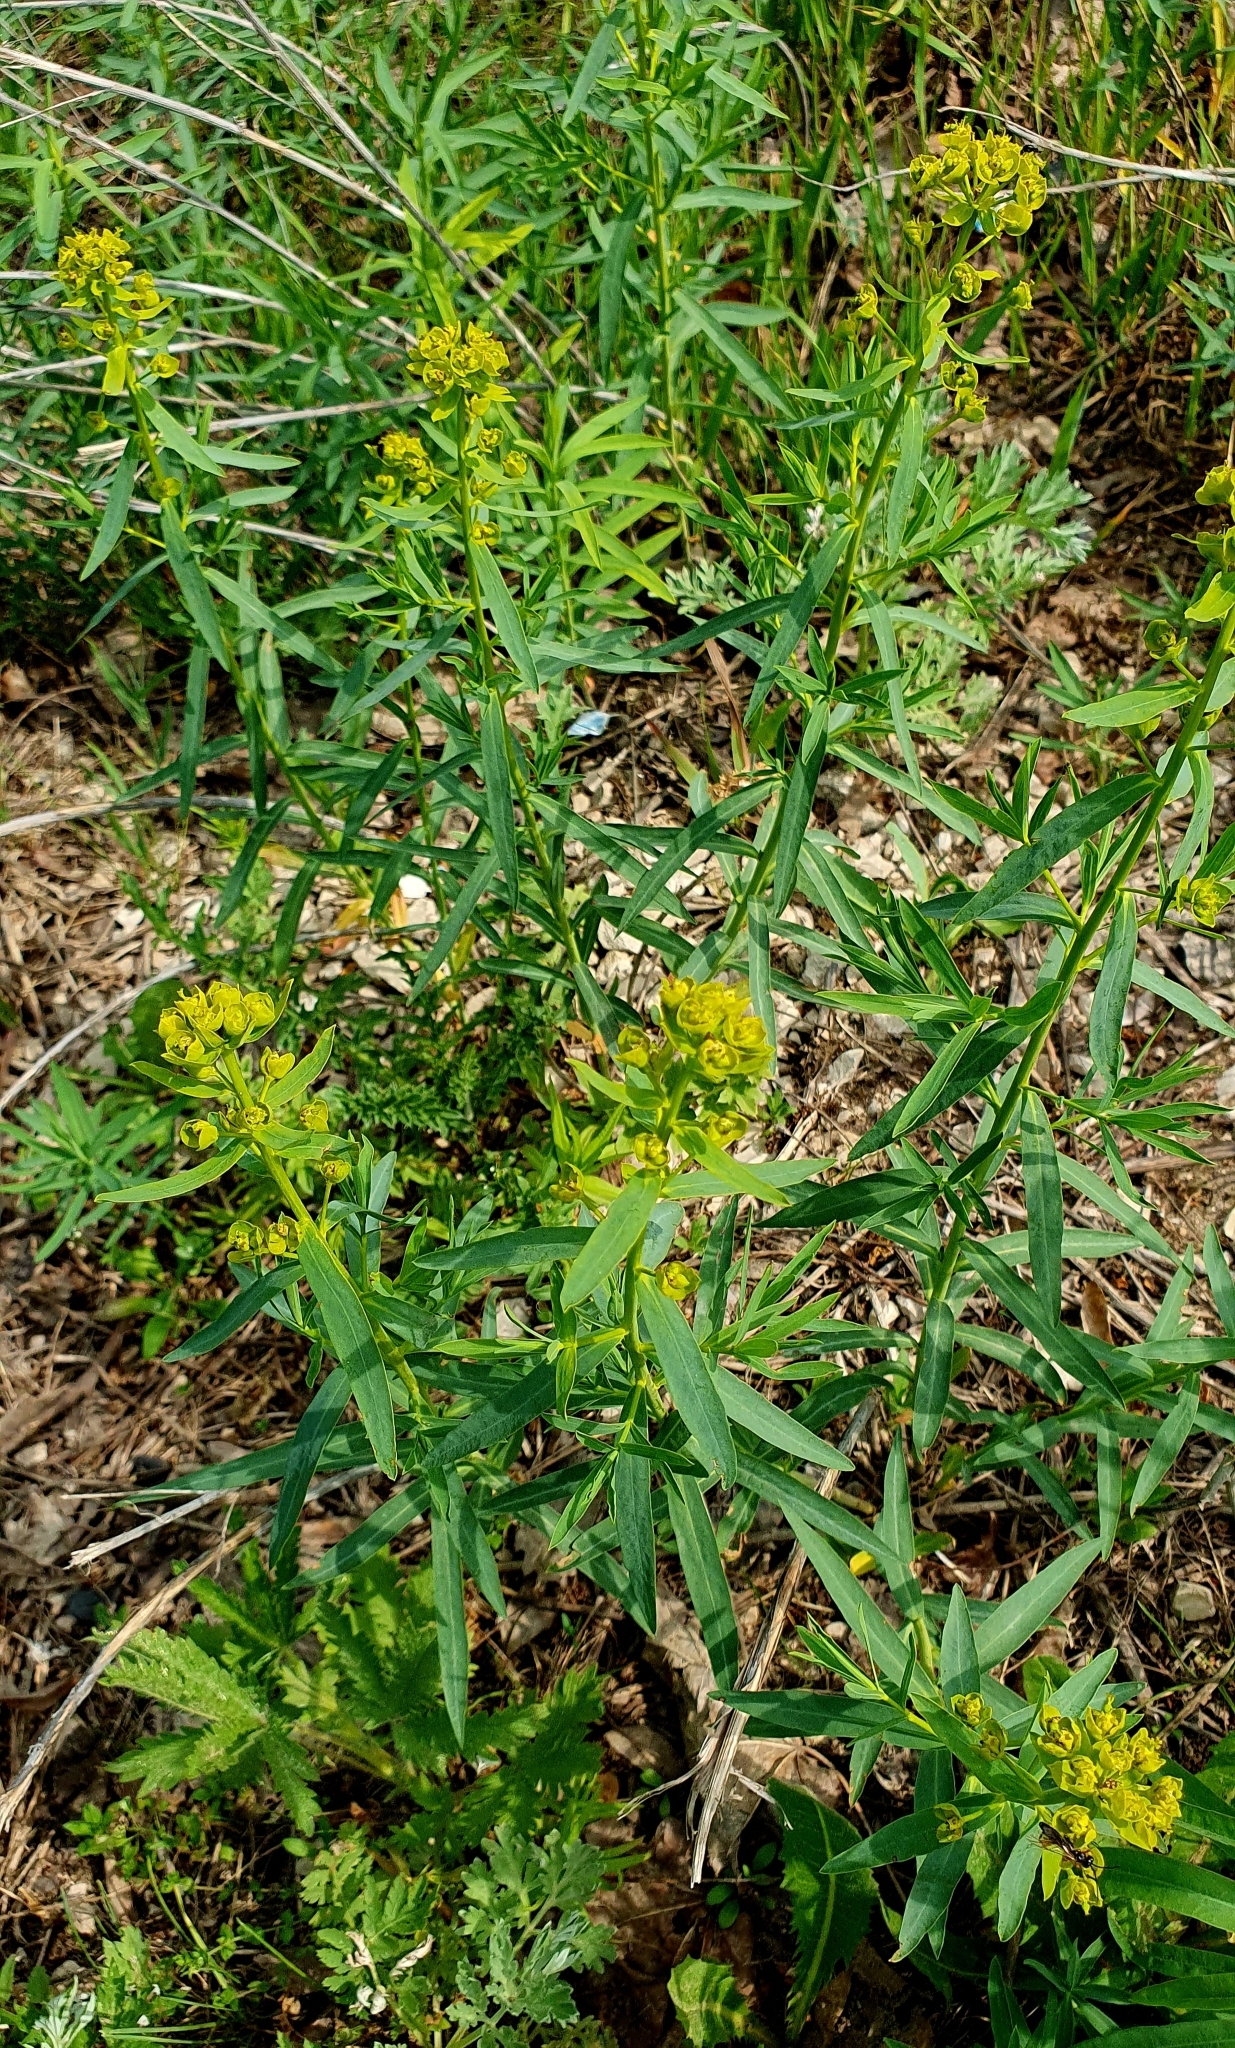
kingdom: Plantae
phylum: Tracheophyta
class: Magnoliopsida
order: Malpighiales
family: Euphorbiaceae
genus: Euphorbia
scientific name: Euphorbia virgata
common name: Leafy spurge
